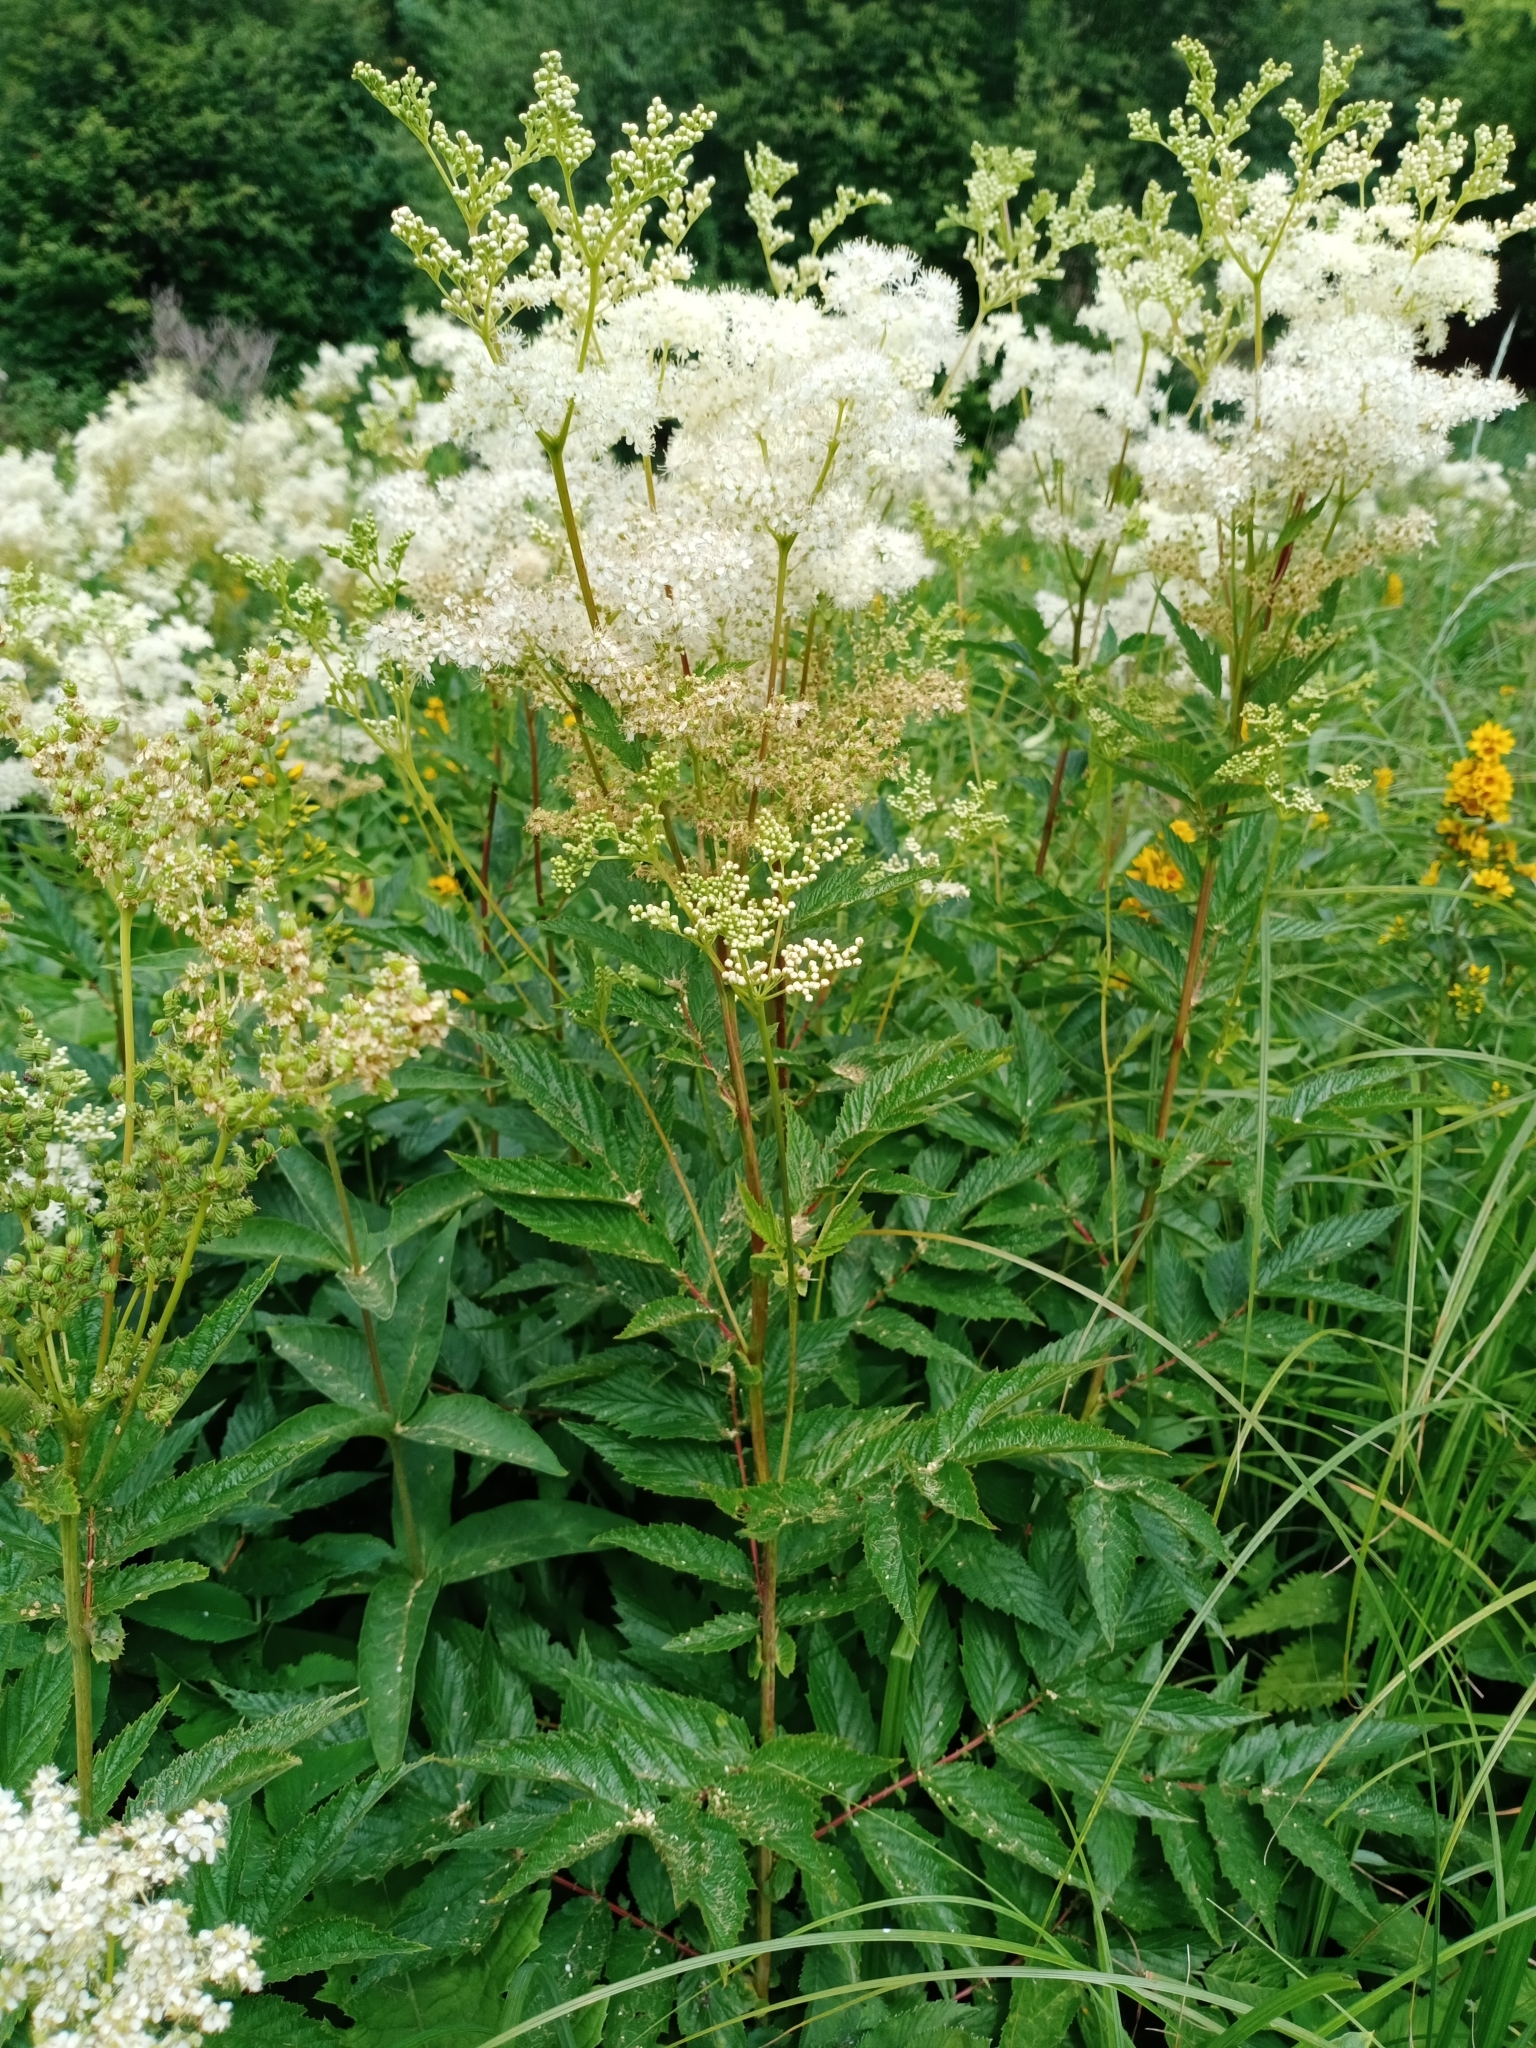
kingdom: Plantae
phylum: Tracheophyta
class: Magnoliopsida
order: Rosales
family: Rosaceae
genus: Filipendula
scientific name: Filipendula ulmaria
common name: Meadowsweet
